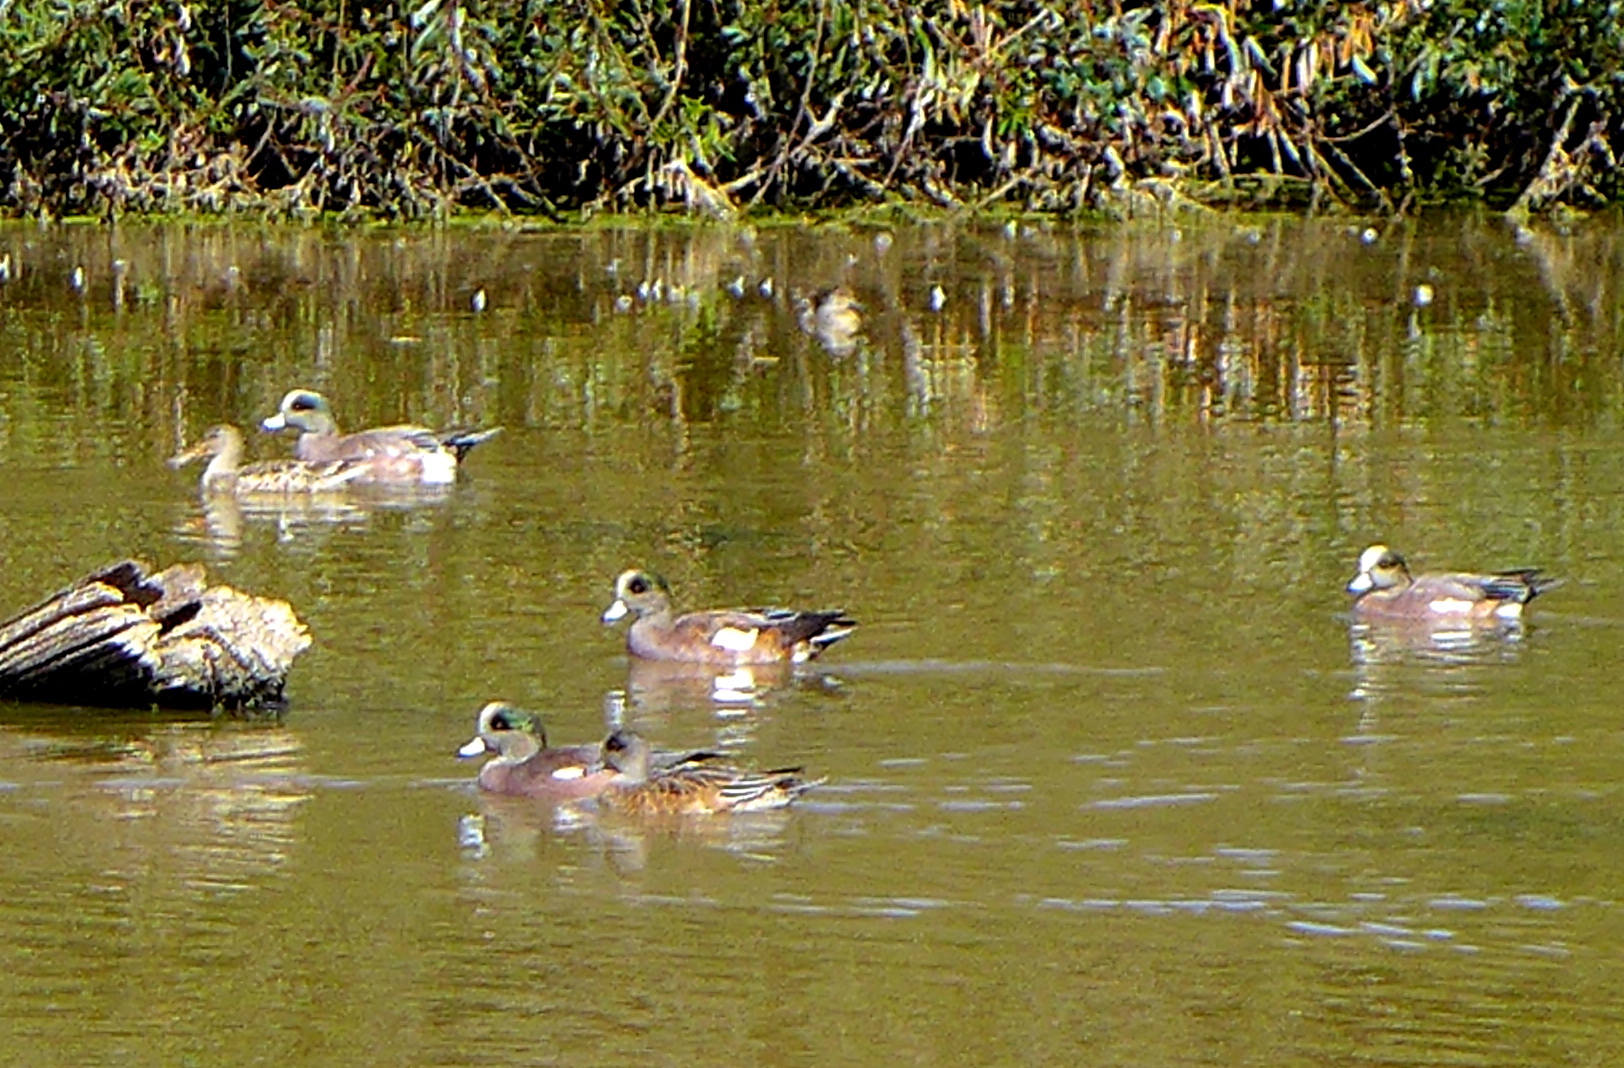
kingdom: Animalia
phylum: Chordata
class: Aves
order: Anseriformes
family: Anatidae
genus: Mareca
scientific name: Mareca americana
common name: American wigeon
